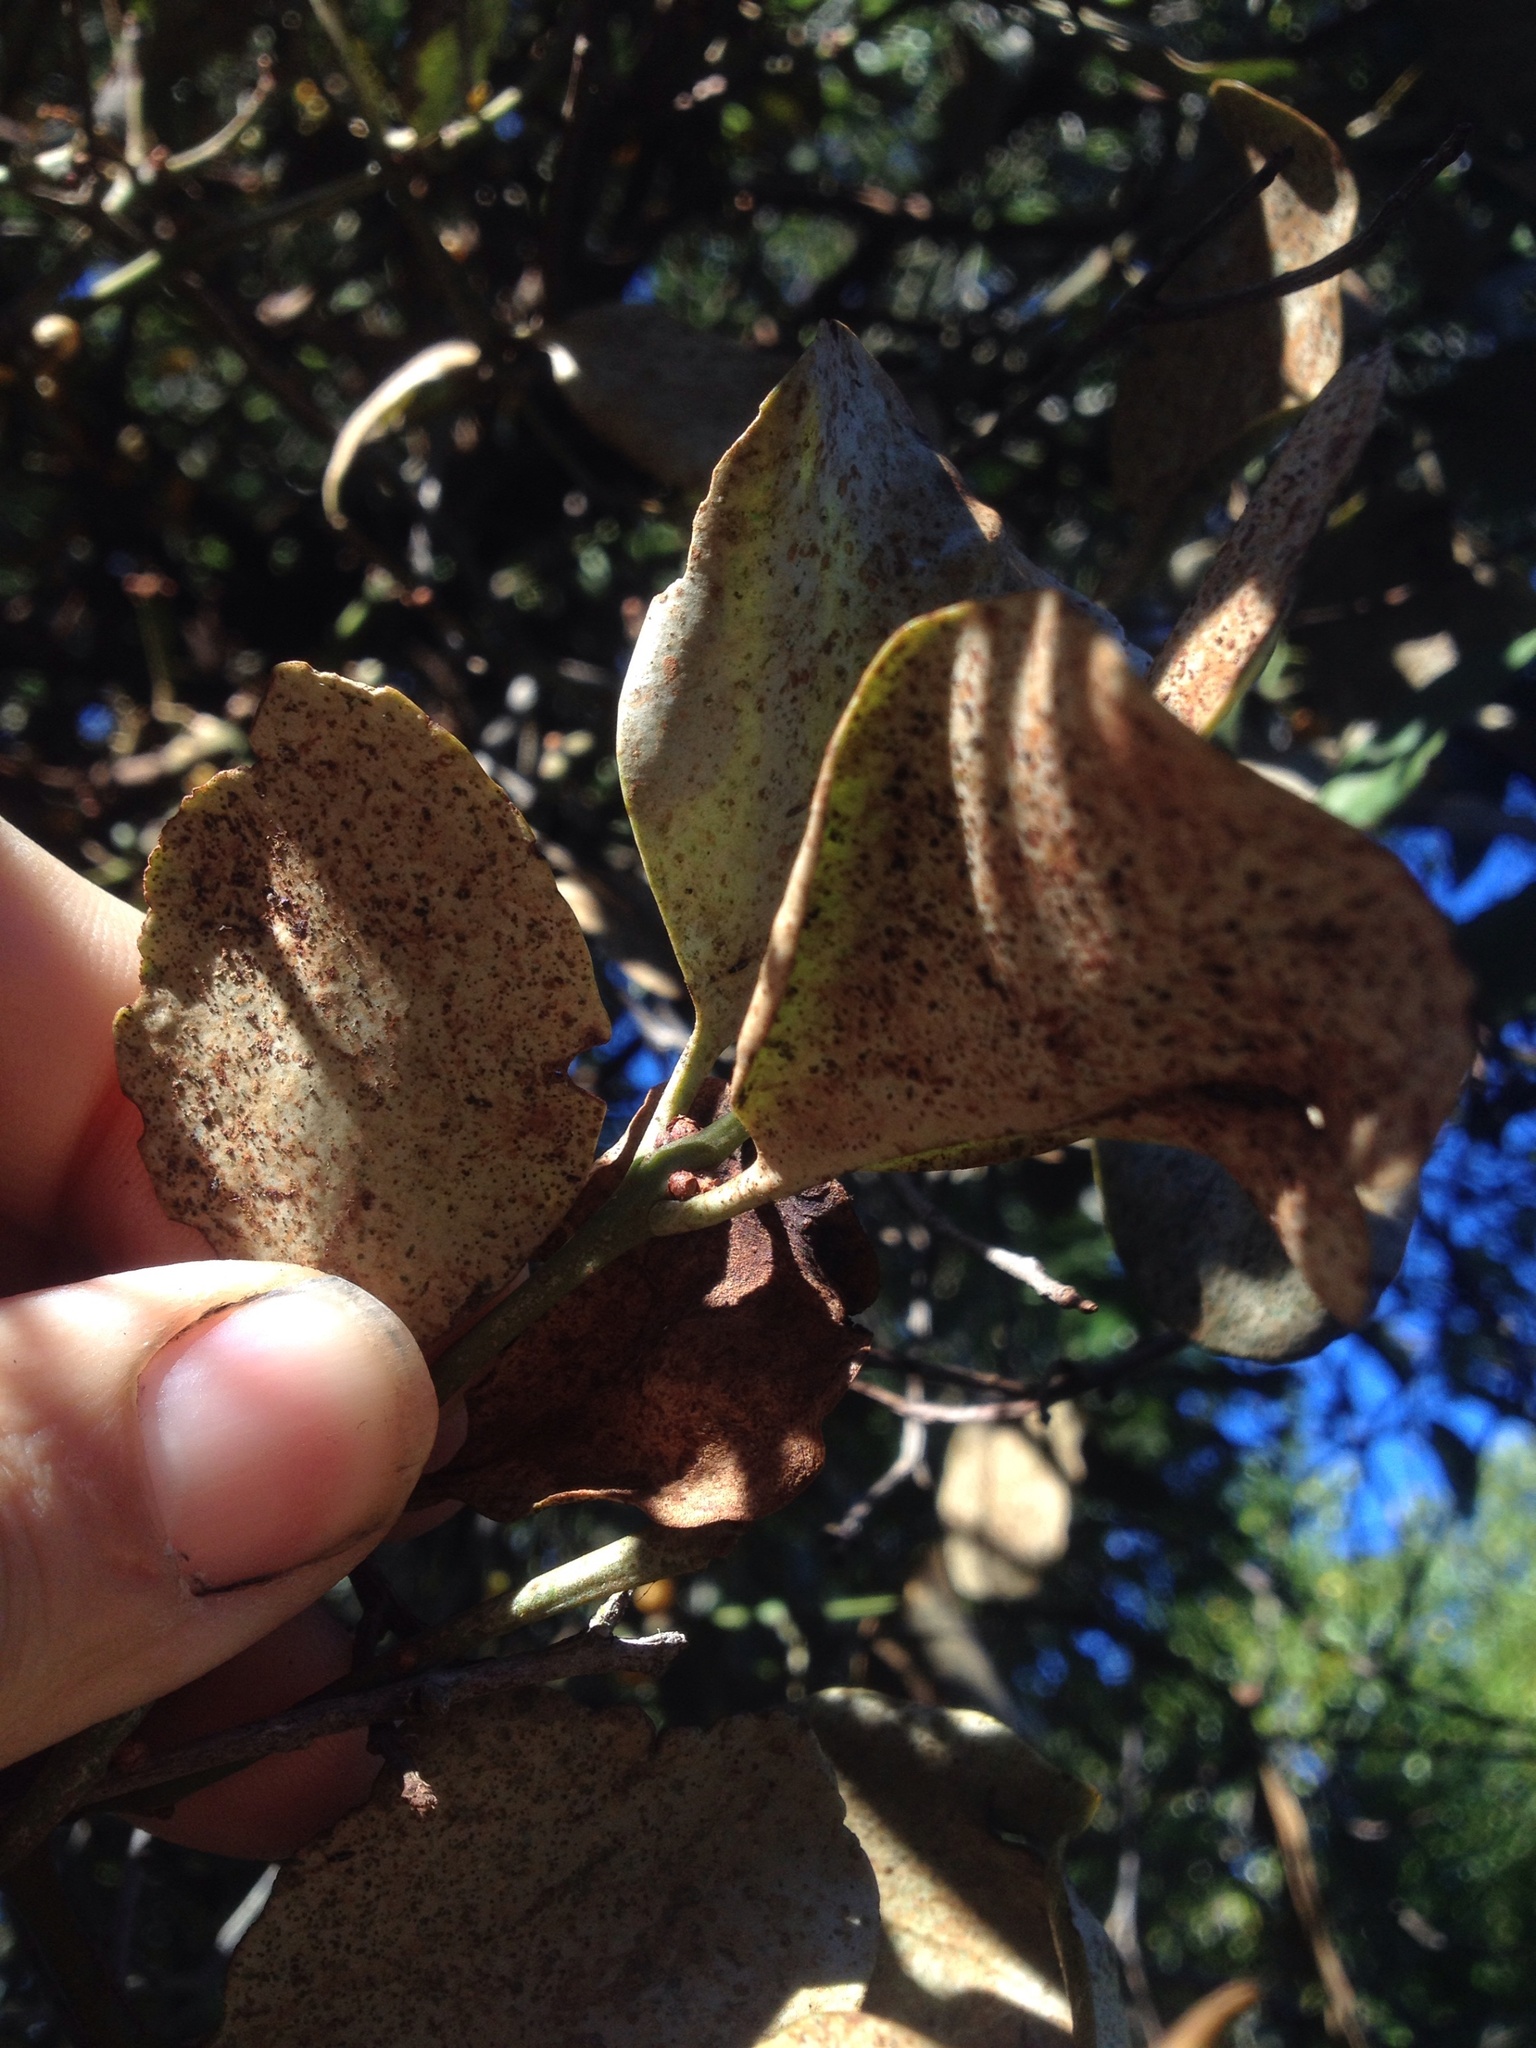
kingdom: Plantae
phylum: Tracheophyta
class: Magnoliopsida
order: Santalales
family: Loranthaceae
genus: Ileostylus
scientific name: Ileostylus micranthus
